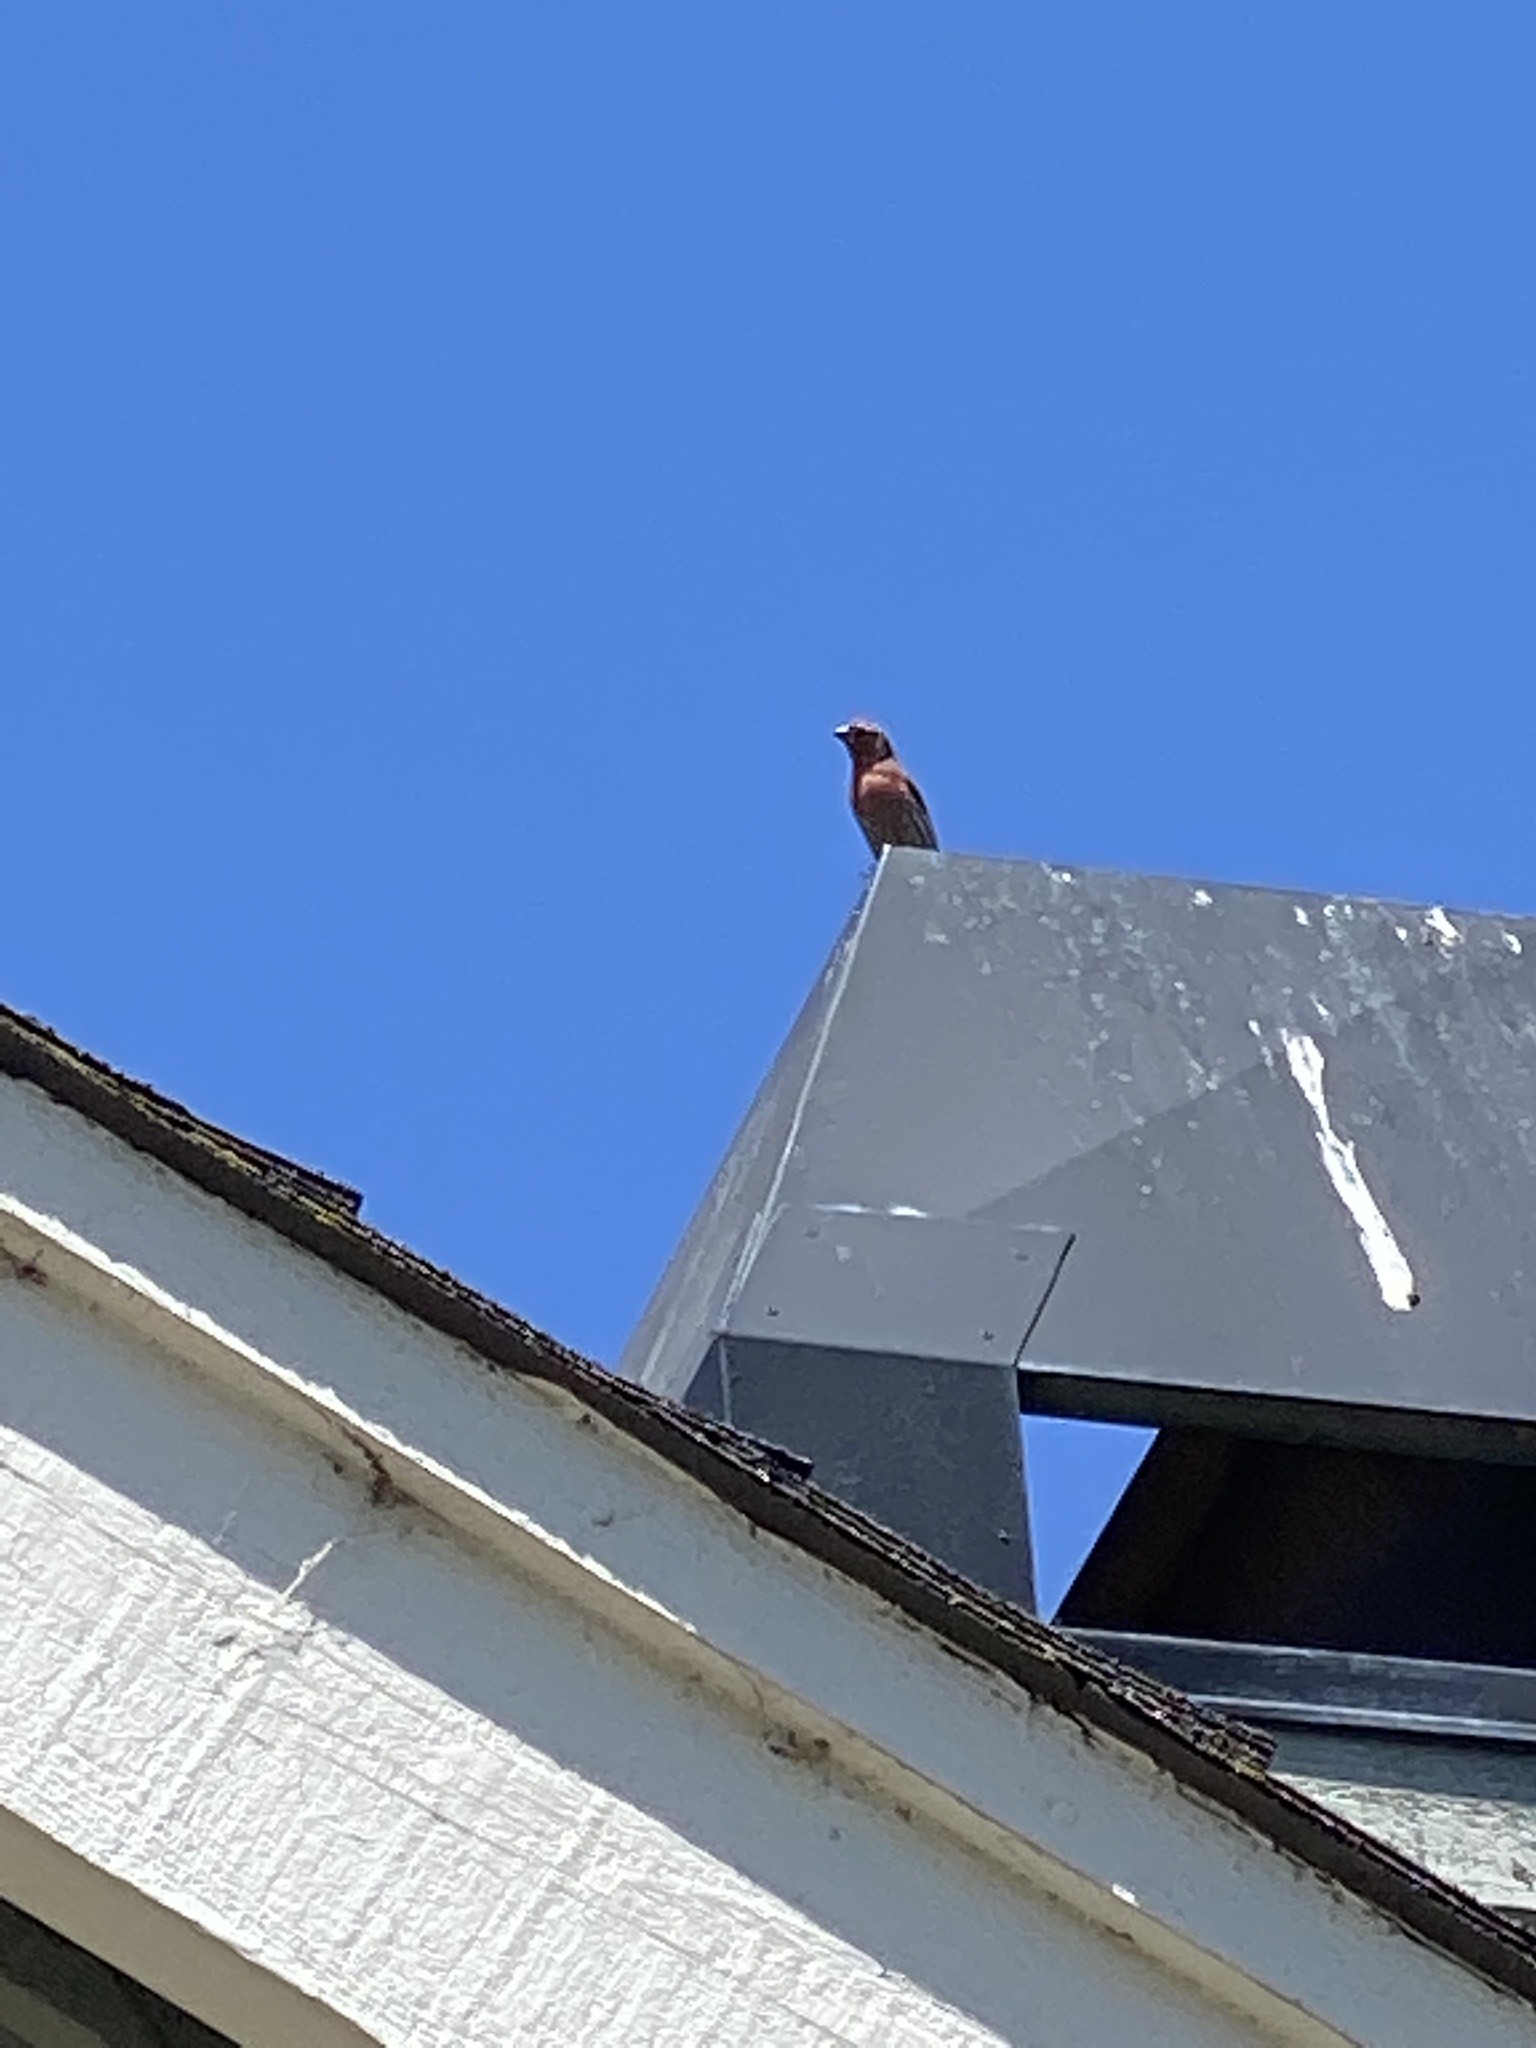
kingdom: Animalia
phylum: Chordata
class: Aves
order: Passeriformes
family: Fringillidae
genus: Haemorhous
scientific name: Haemorhous mexicanus
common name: House finch
